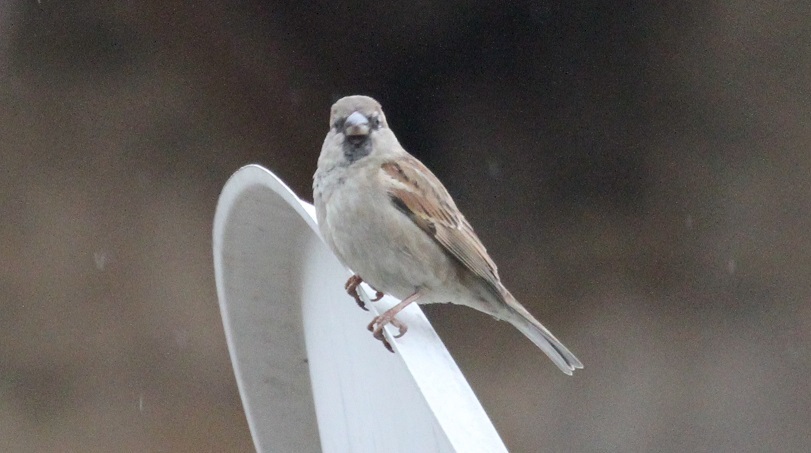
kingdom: Animalia
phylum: Chordata
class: Aves
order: Passeriformes
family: Passeridae
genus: Passer
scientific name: Passer domesticus
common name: House sparrow
